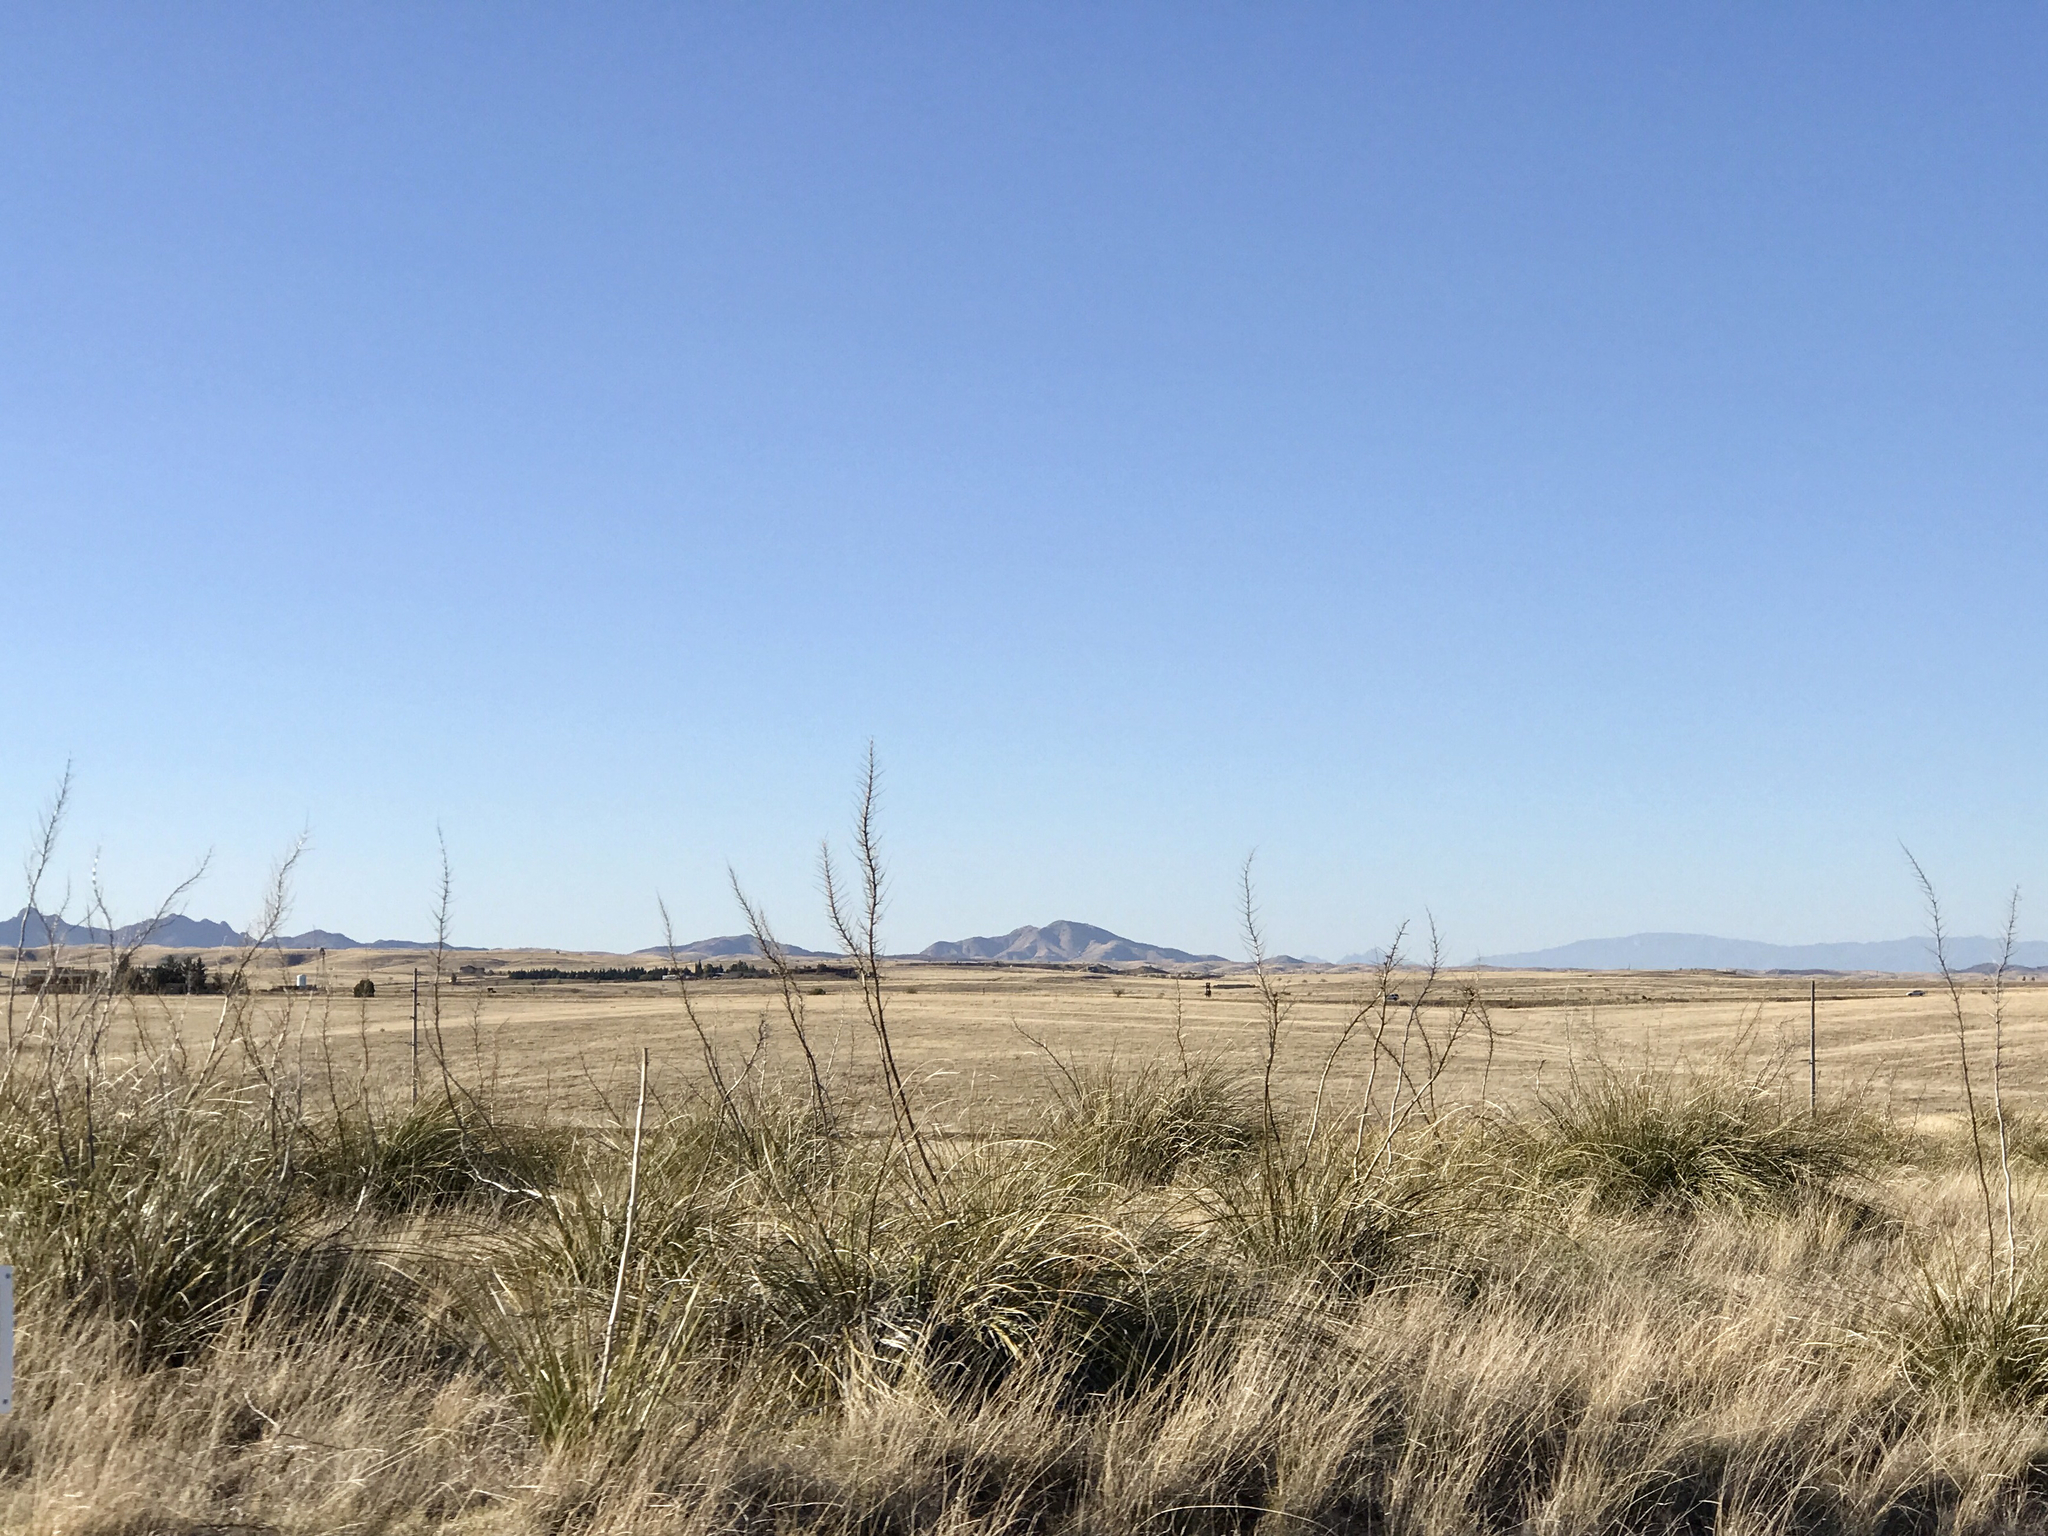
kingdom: Plantae
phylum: Tracheophyta
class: Liliopsida
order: Asparagales
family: Asparagaceae
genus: Nolina
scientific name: Nolina microcarpa
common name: Bear-grass
